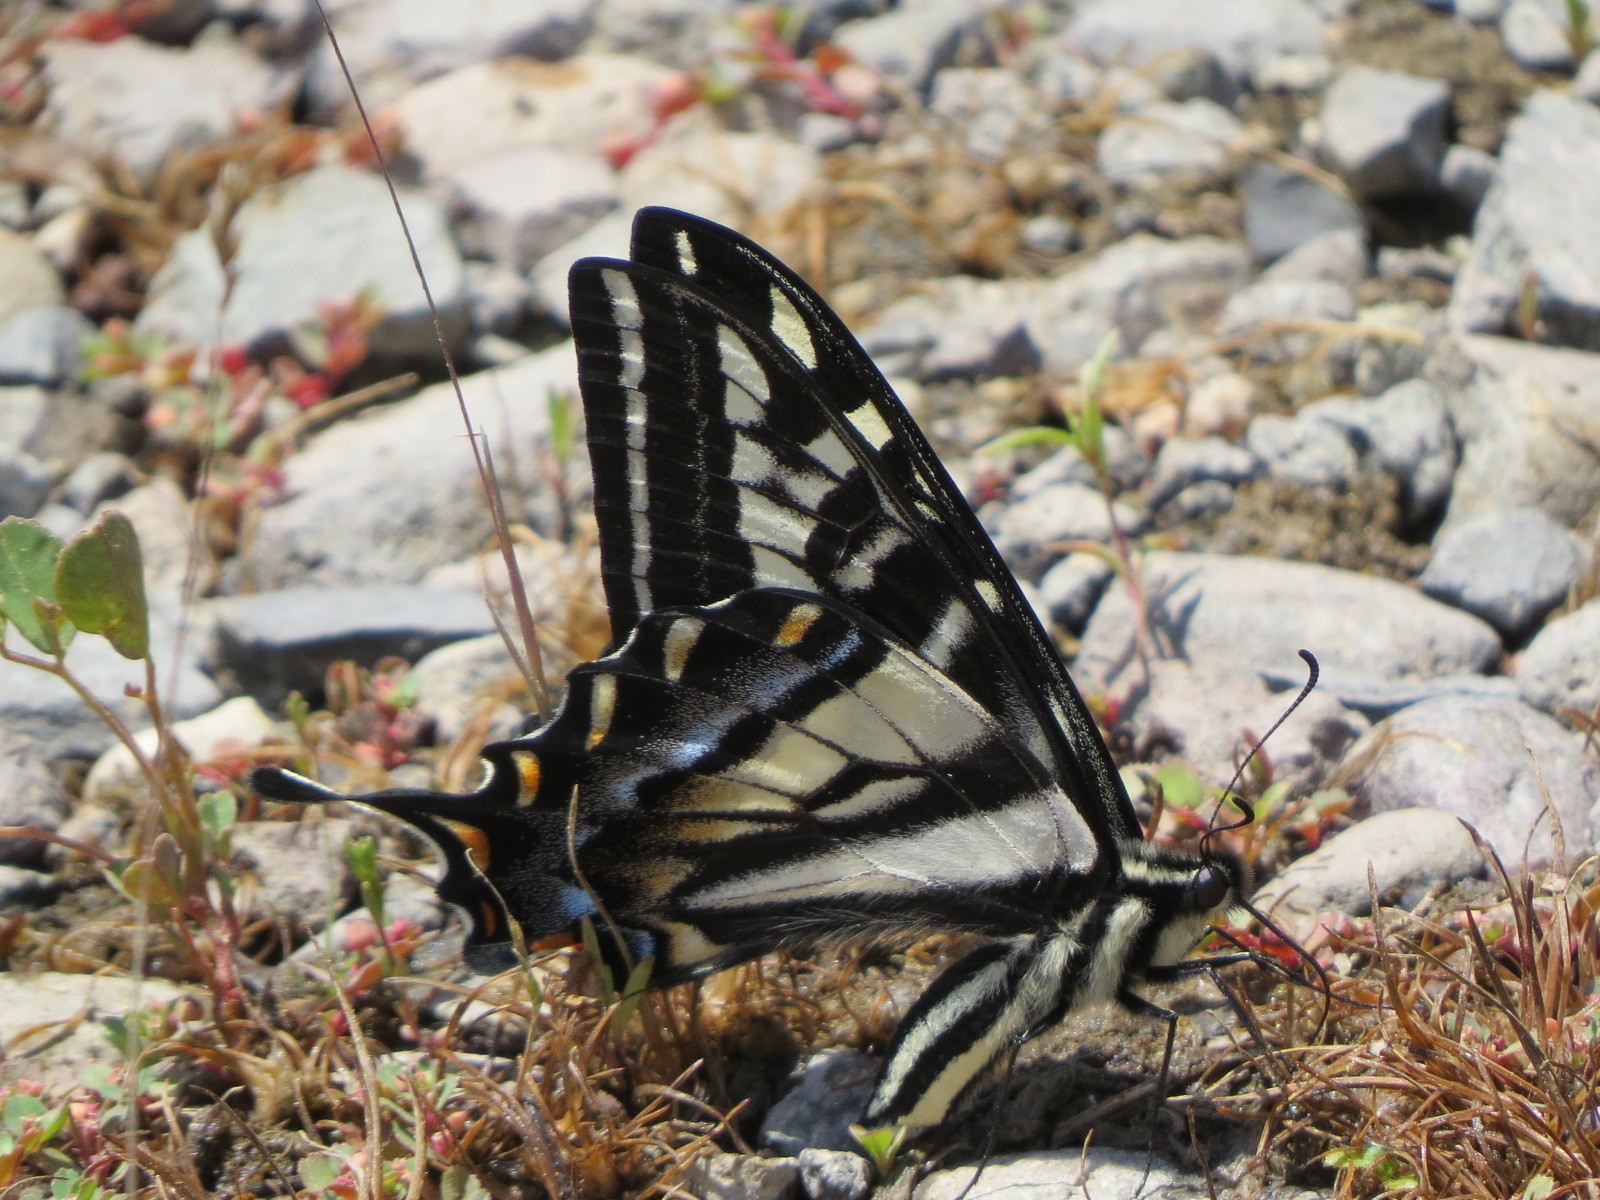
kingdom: Animalia
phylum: Arthropoda
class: Insecta
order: Lepidoptera
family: Papilionidae
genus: Papilio
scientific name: Papilio eurymedon
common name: Pale tiger swallowtail
